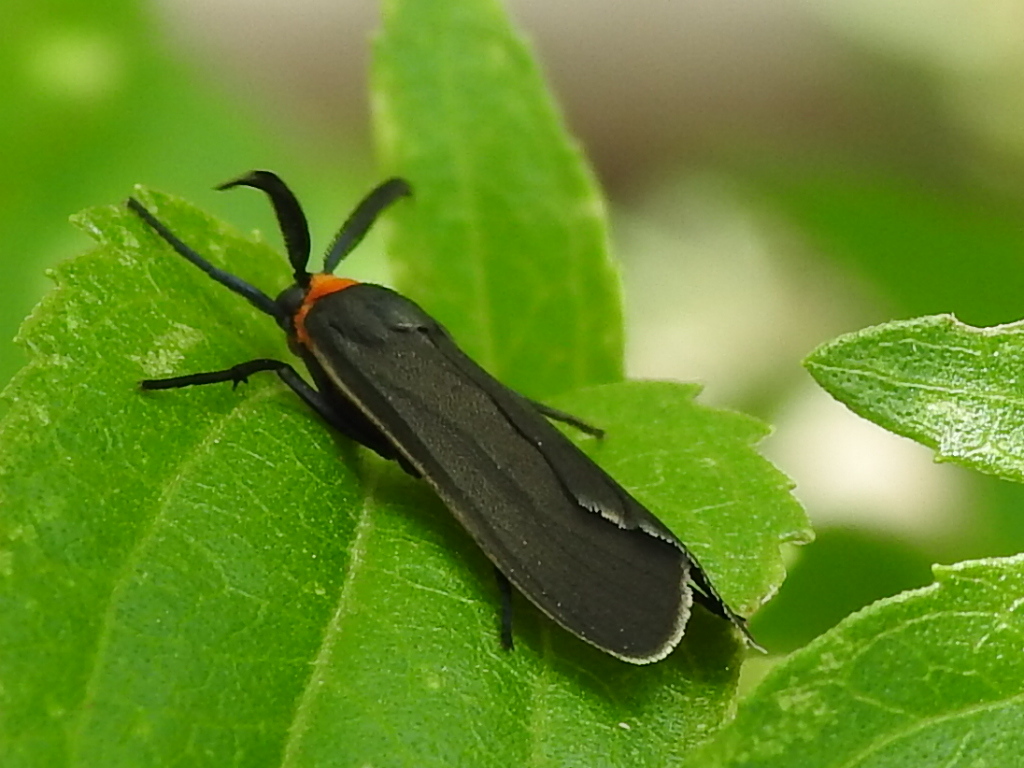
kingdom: Animalia
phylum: Arthropoda
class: Insecta
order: Lepidoptera
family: Erebidae
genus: Cisseps
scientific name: Cisseps fulvicollis
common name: Yellow-collared scape moth
